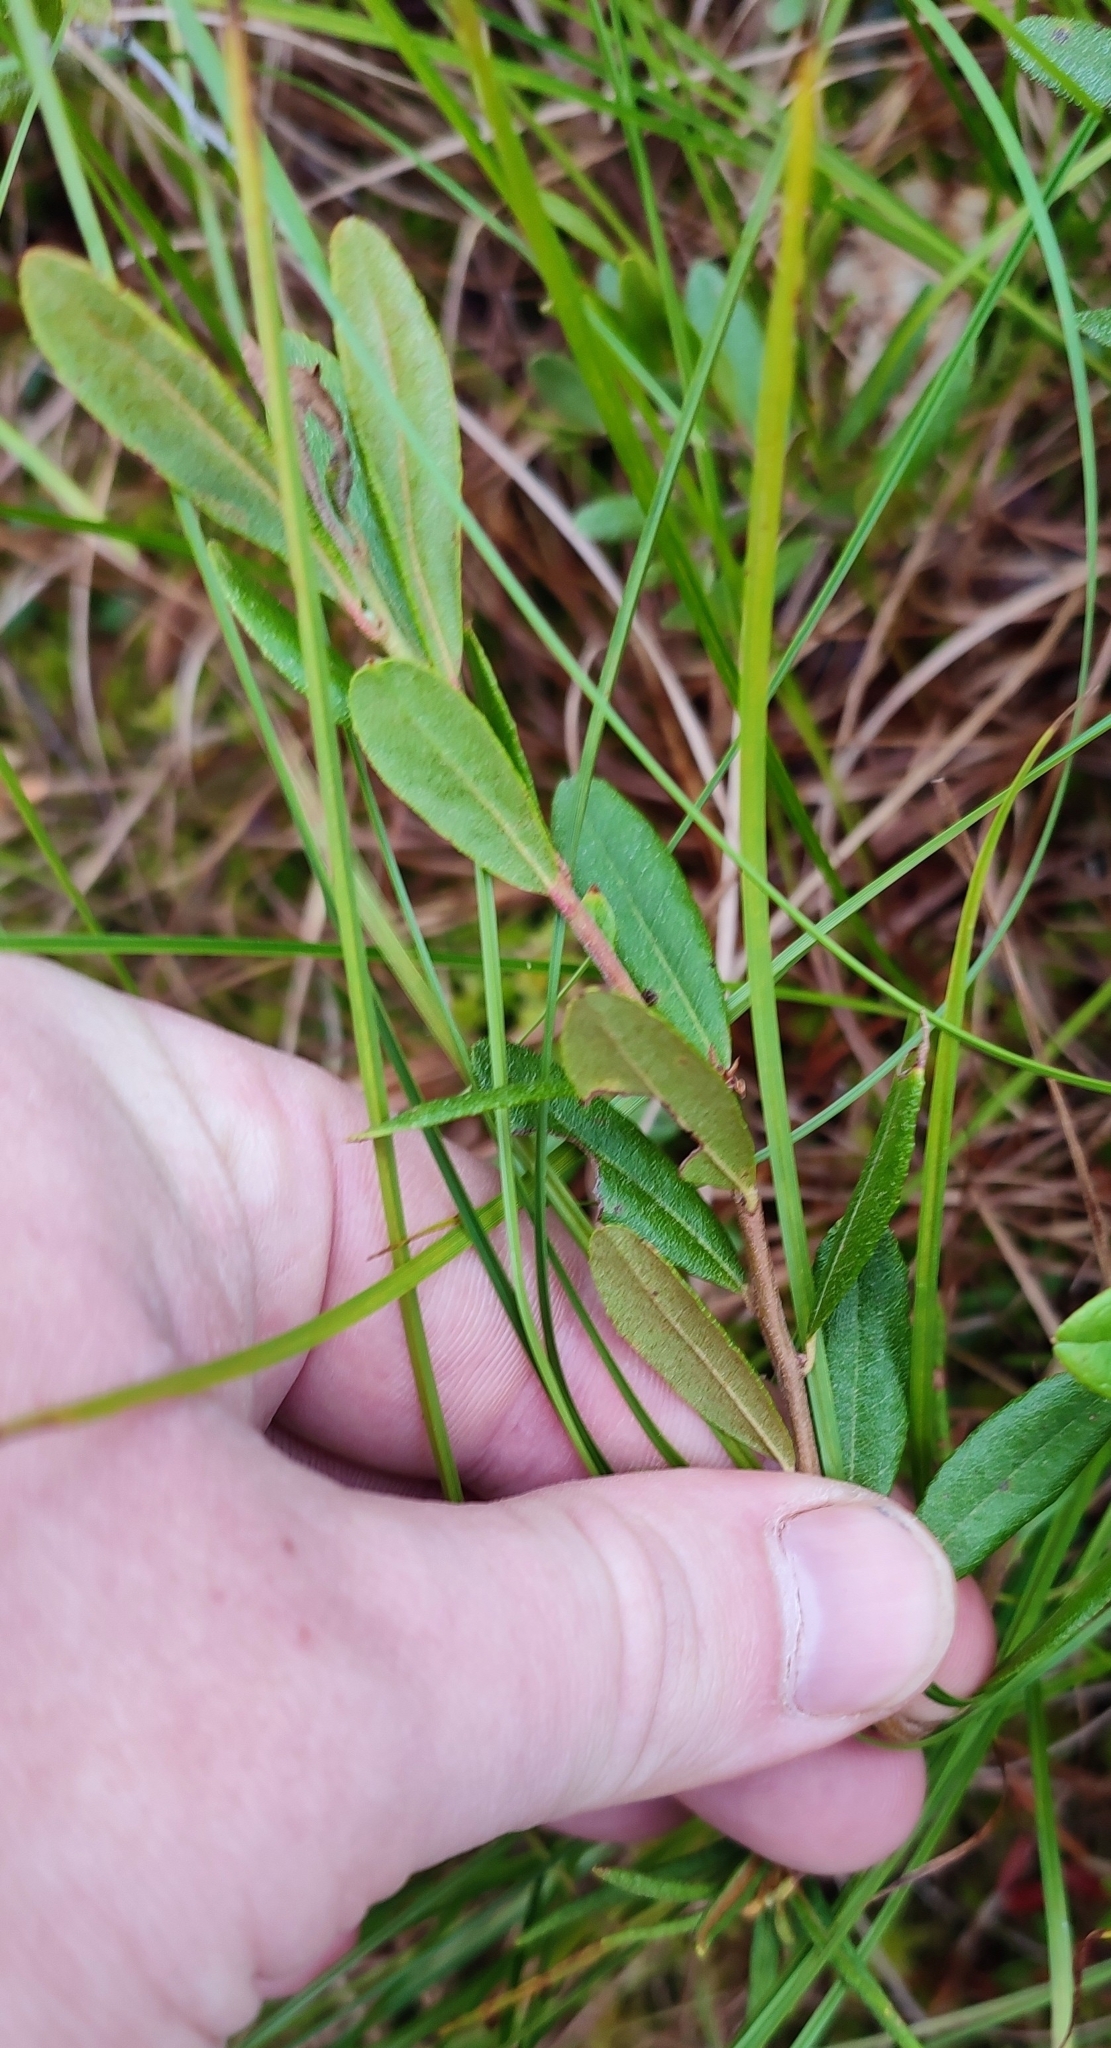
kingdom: Plantae
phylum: Tracheophyta
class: Magnoliopsida
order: Ericales
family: Ericaceae
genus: Chamaedaphne
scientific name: Chamaedaphne calyculata
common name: Leatherleaf
